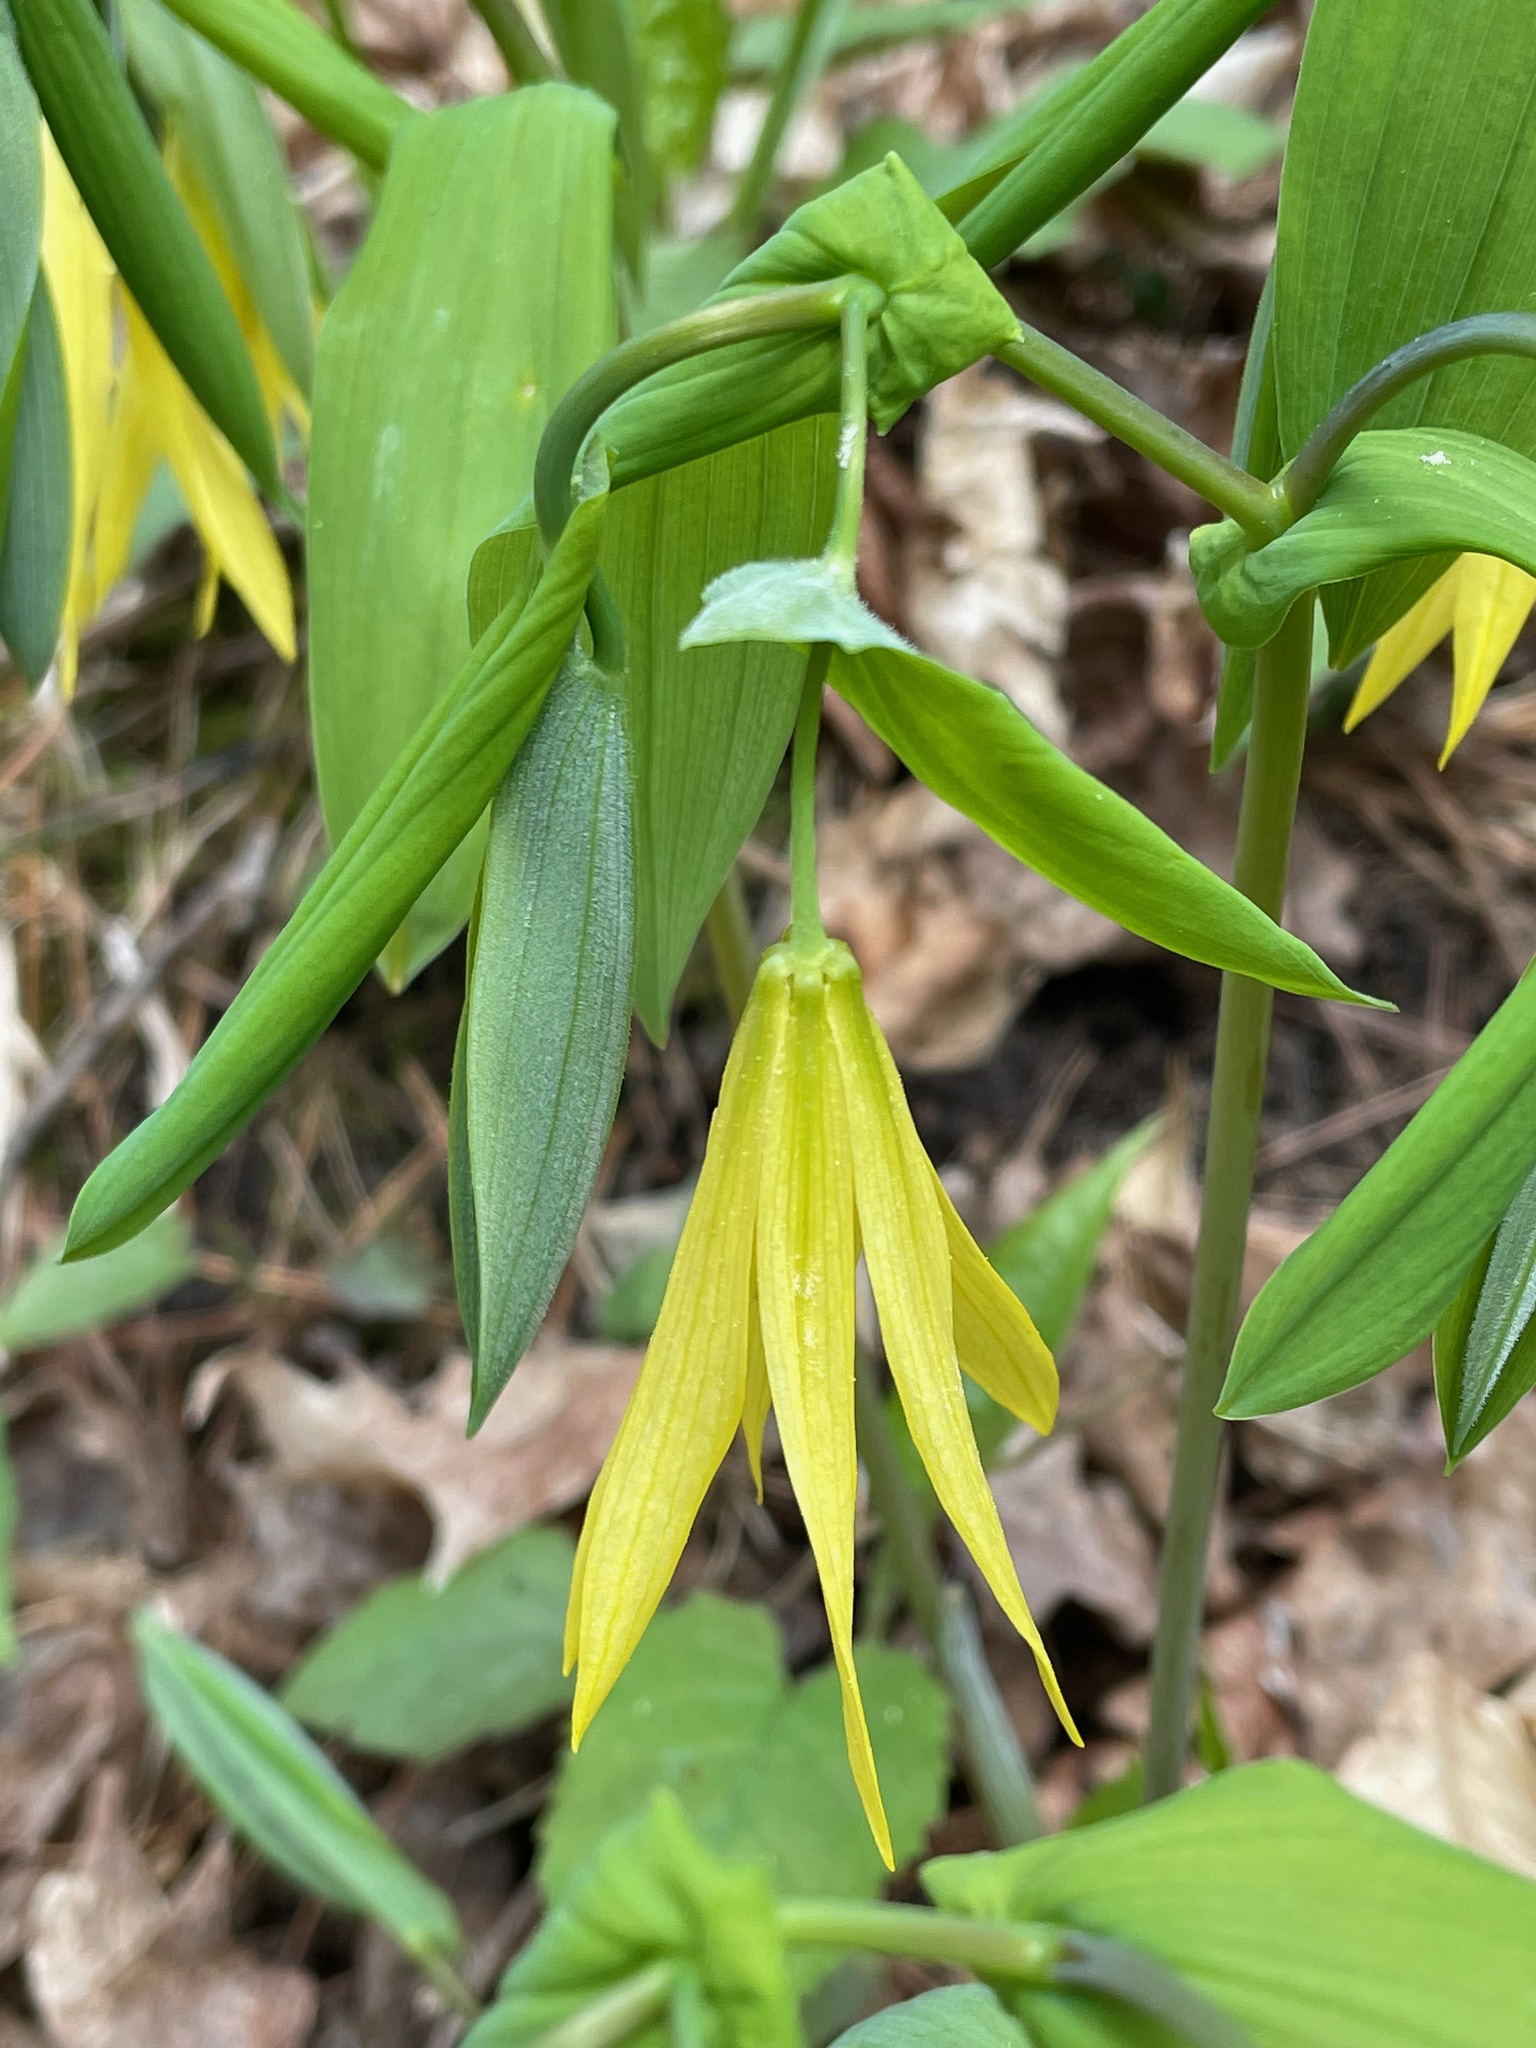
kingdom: Plantae
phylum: Tracheophyta
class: Liliopsida
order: Liliales
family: Colchicaceae
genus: Uvularia
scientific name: Uvularia grandiflora
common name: Bellwort
